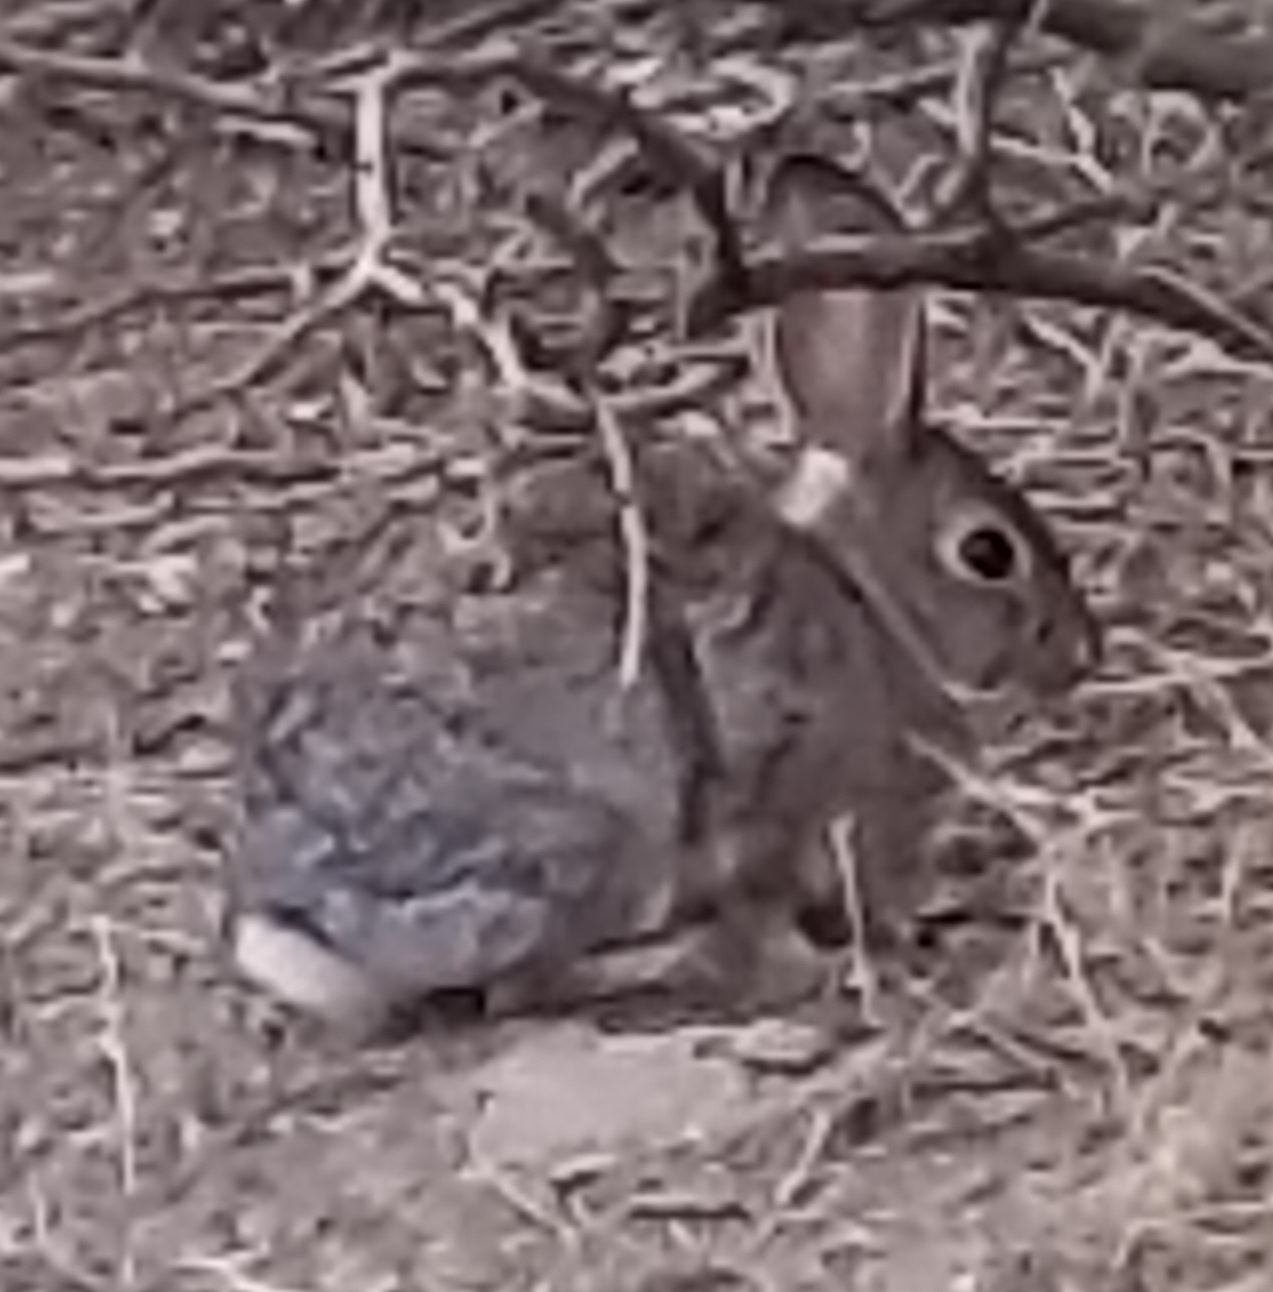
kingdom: Animalia
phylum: Chordata
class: Mammalia
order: Lagomorpha
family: Leporidae
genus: Sylvilagus
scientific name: Sylvilagus audubonii
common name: Desert cottontail
